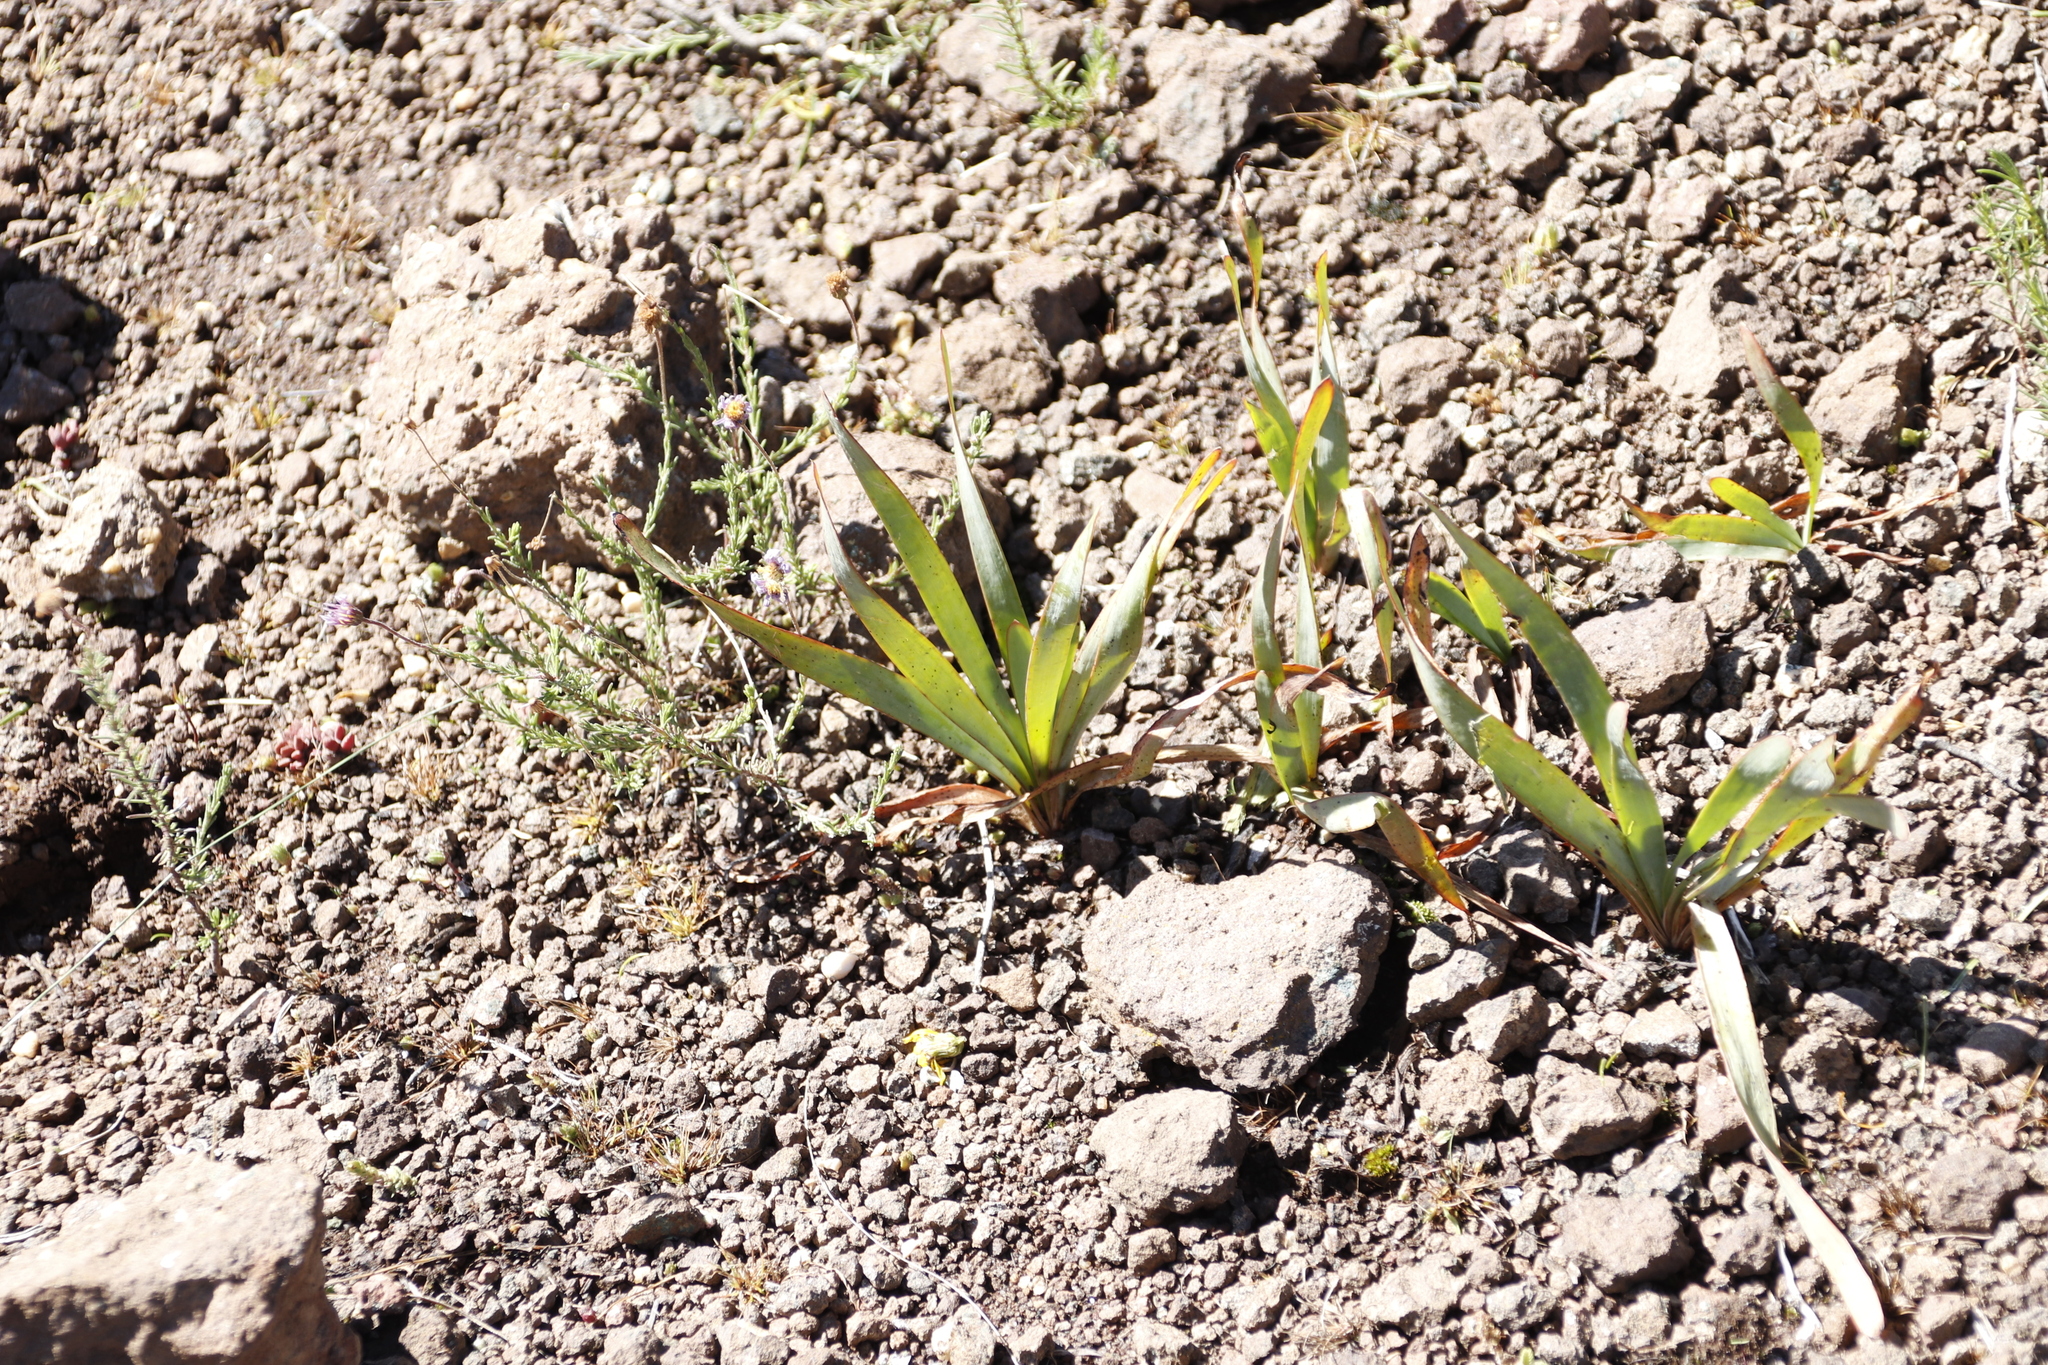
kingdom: Plantae
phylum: Tracheophyta
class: Liliopsida
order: Asparagales
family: Asphodelaceae
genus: Bulbine
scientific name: Bulbine narcissifolia
